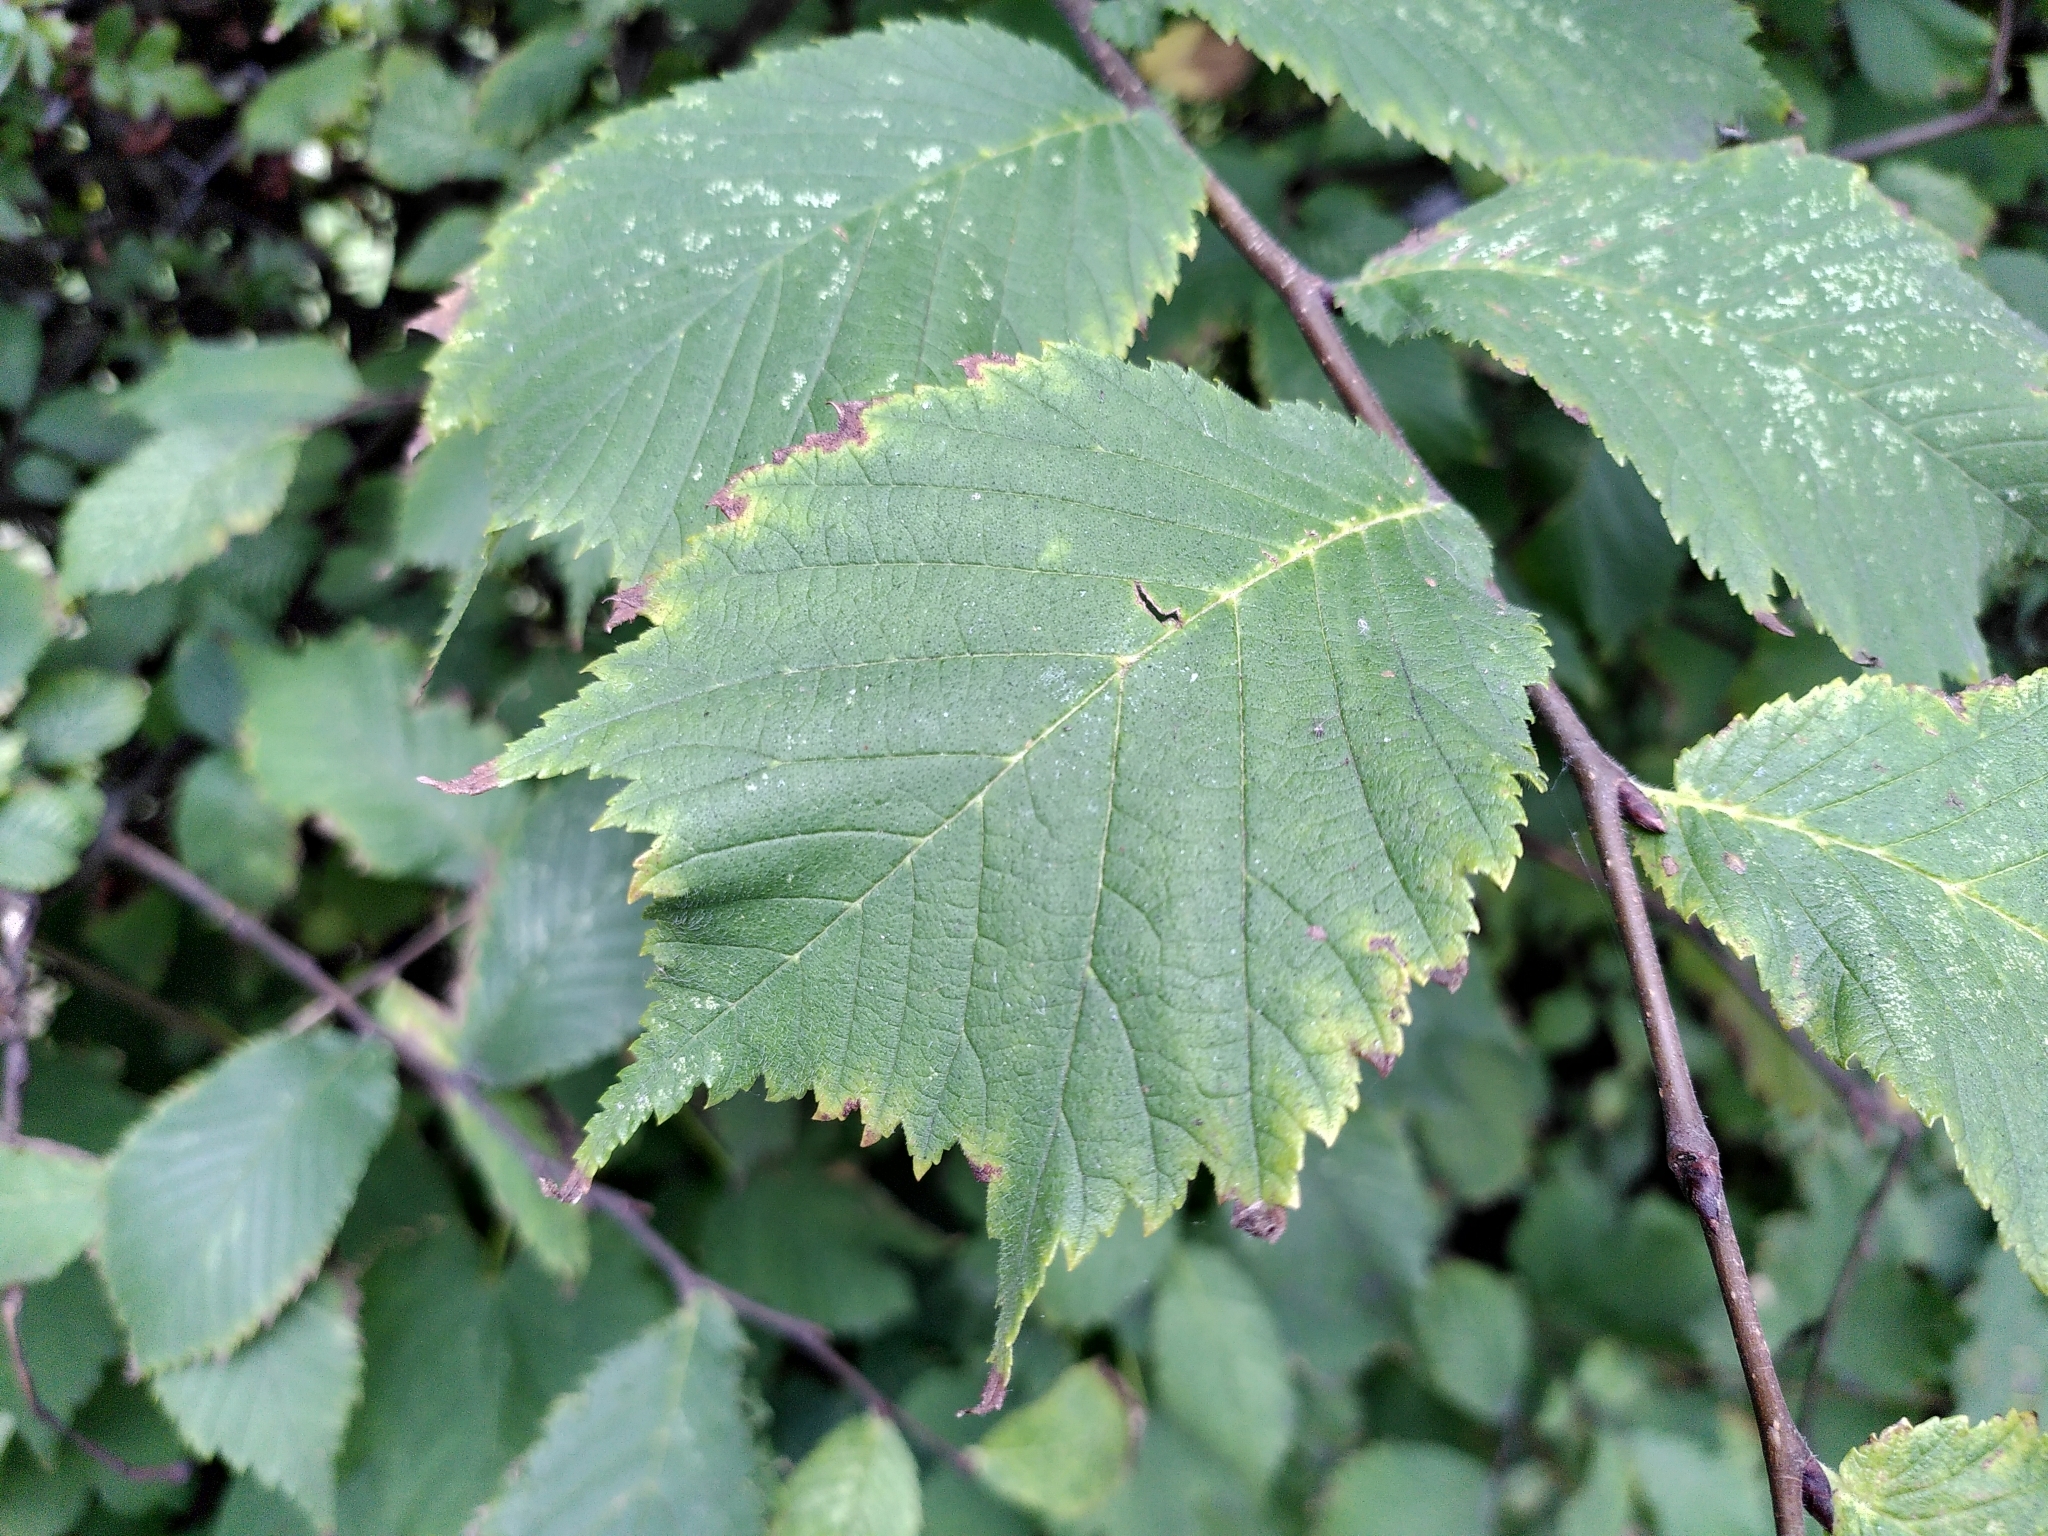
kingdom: Plantae
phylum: Tracheophyta
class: Magnoliopsida
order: Rosales
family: Ulmaceae
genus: Ulmus
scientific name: Ulmus glabra
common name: Wych elm
